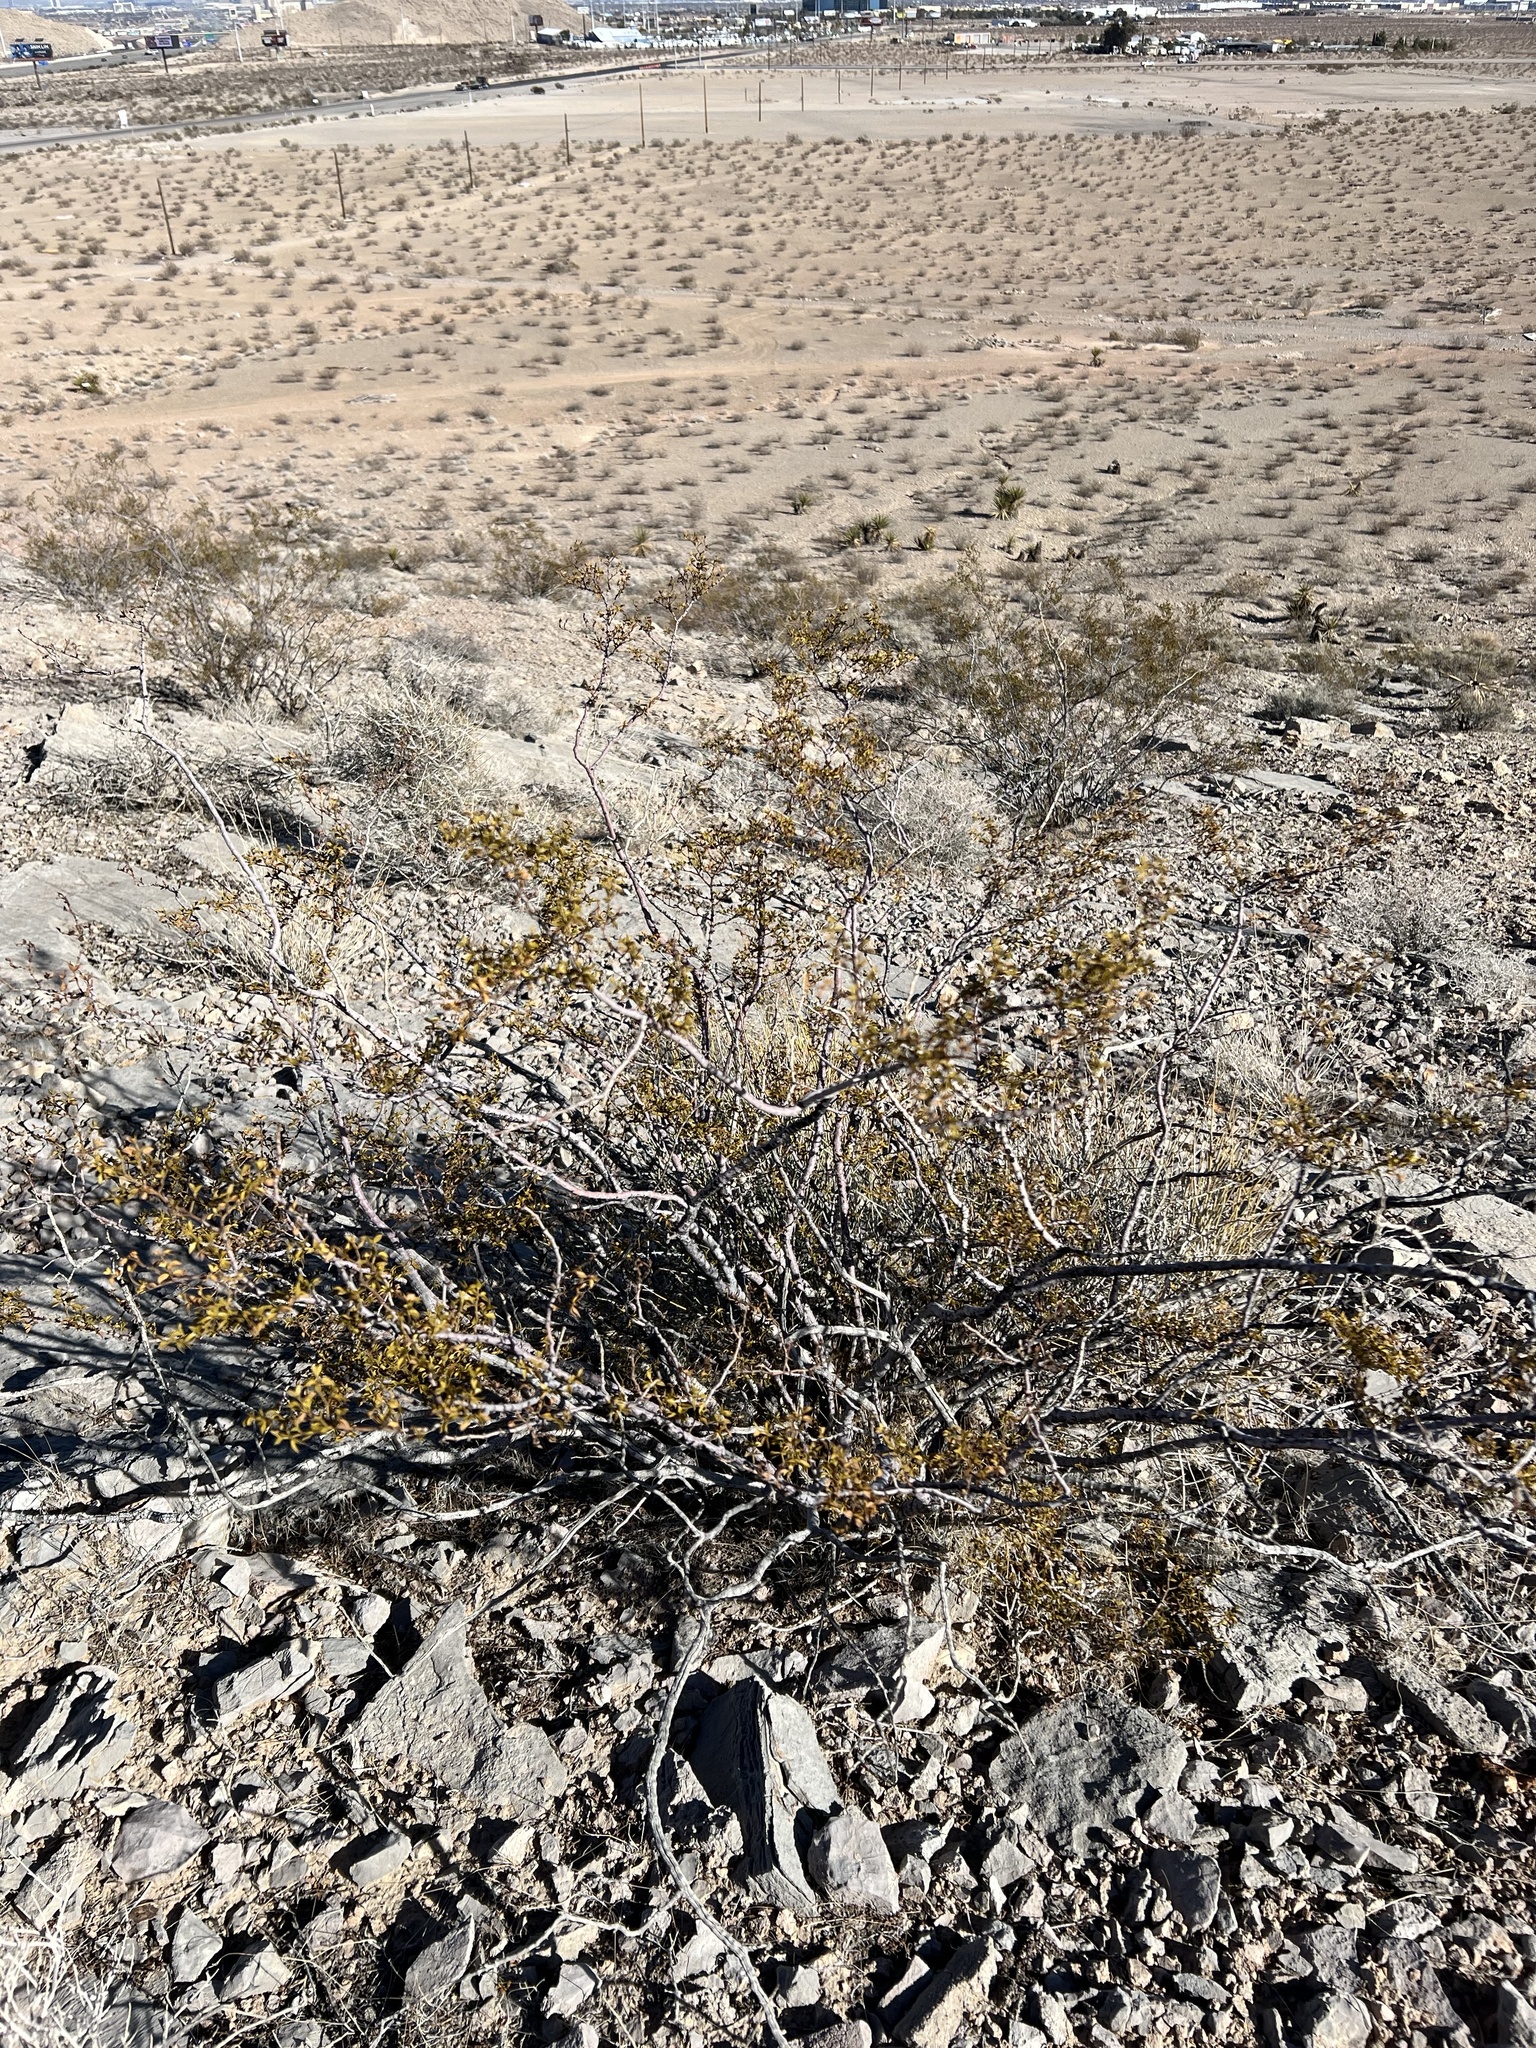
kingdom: Plantae
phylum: Tracheophyta
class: Magnoliopsida
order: Zygophyllales
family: Zygophyllaceae
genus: Larrea
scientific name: Larrea tridentata
